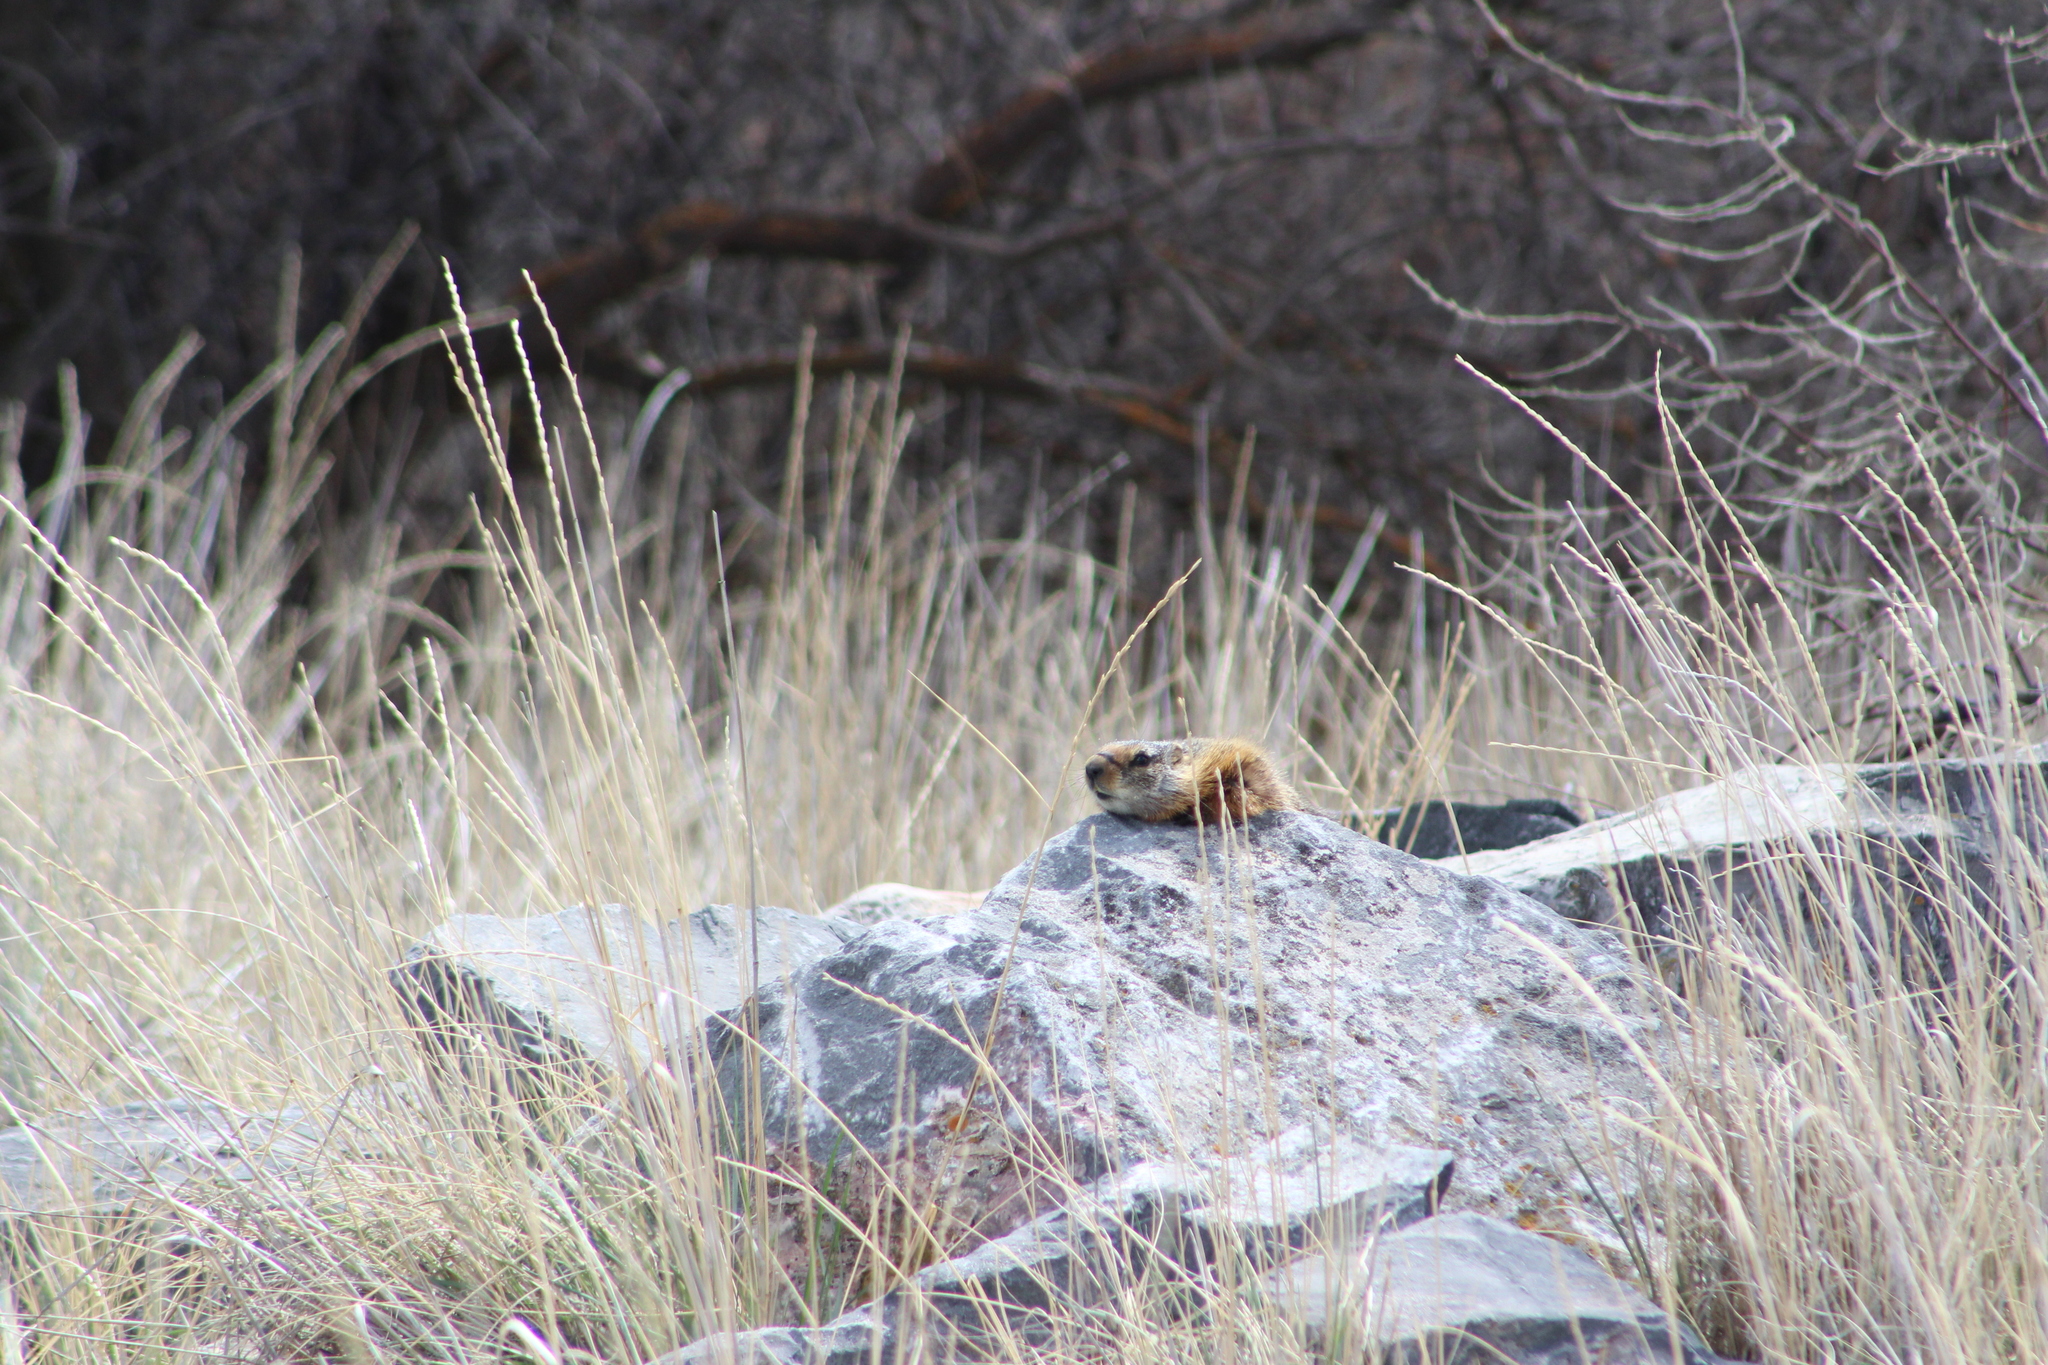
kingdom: Animalia
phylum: Chordata
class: Mammalia
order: Rodentia
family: Sciuridae
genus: Marmota
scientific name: Marmota flaviventris
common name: Yellow-bellied marmot
